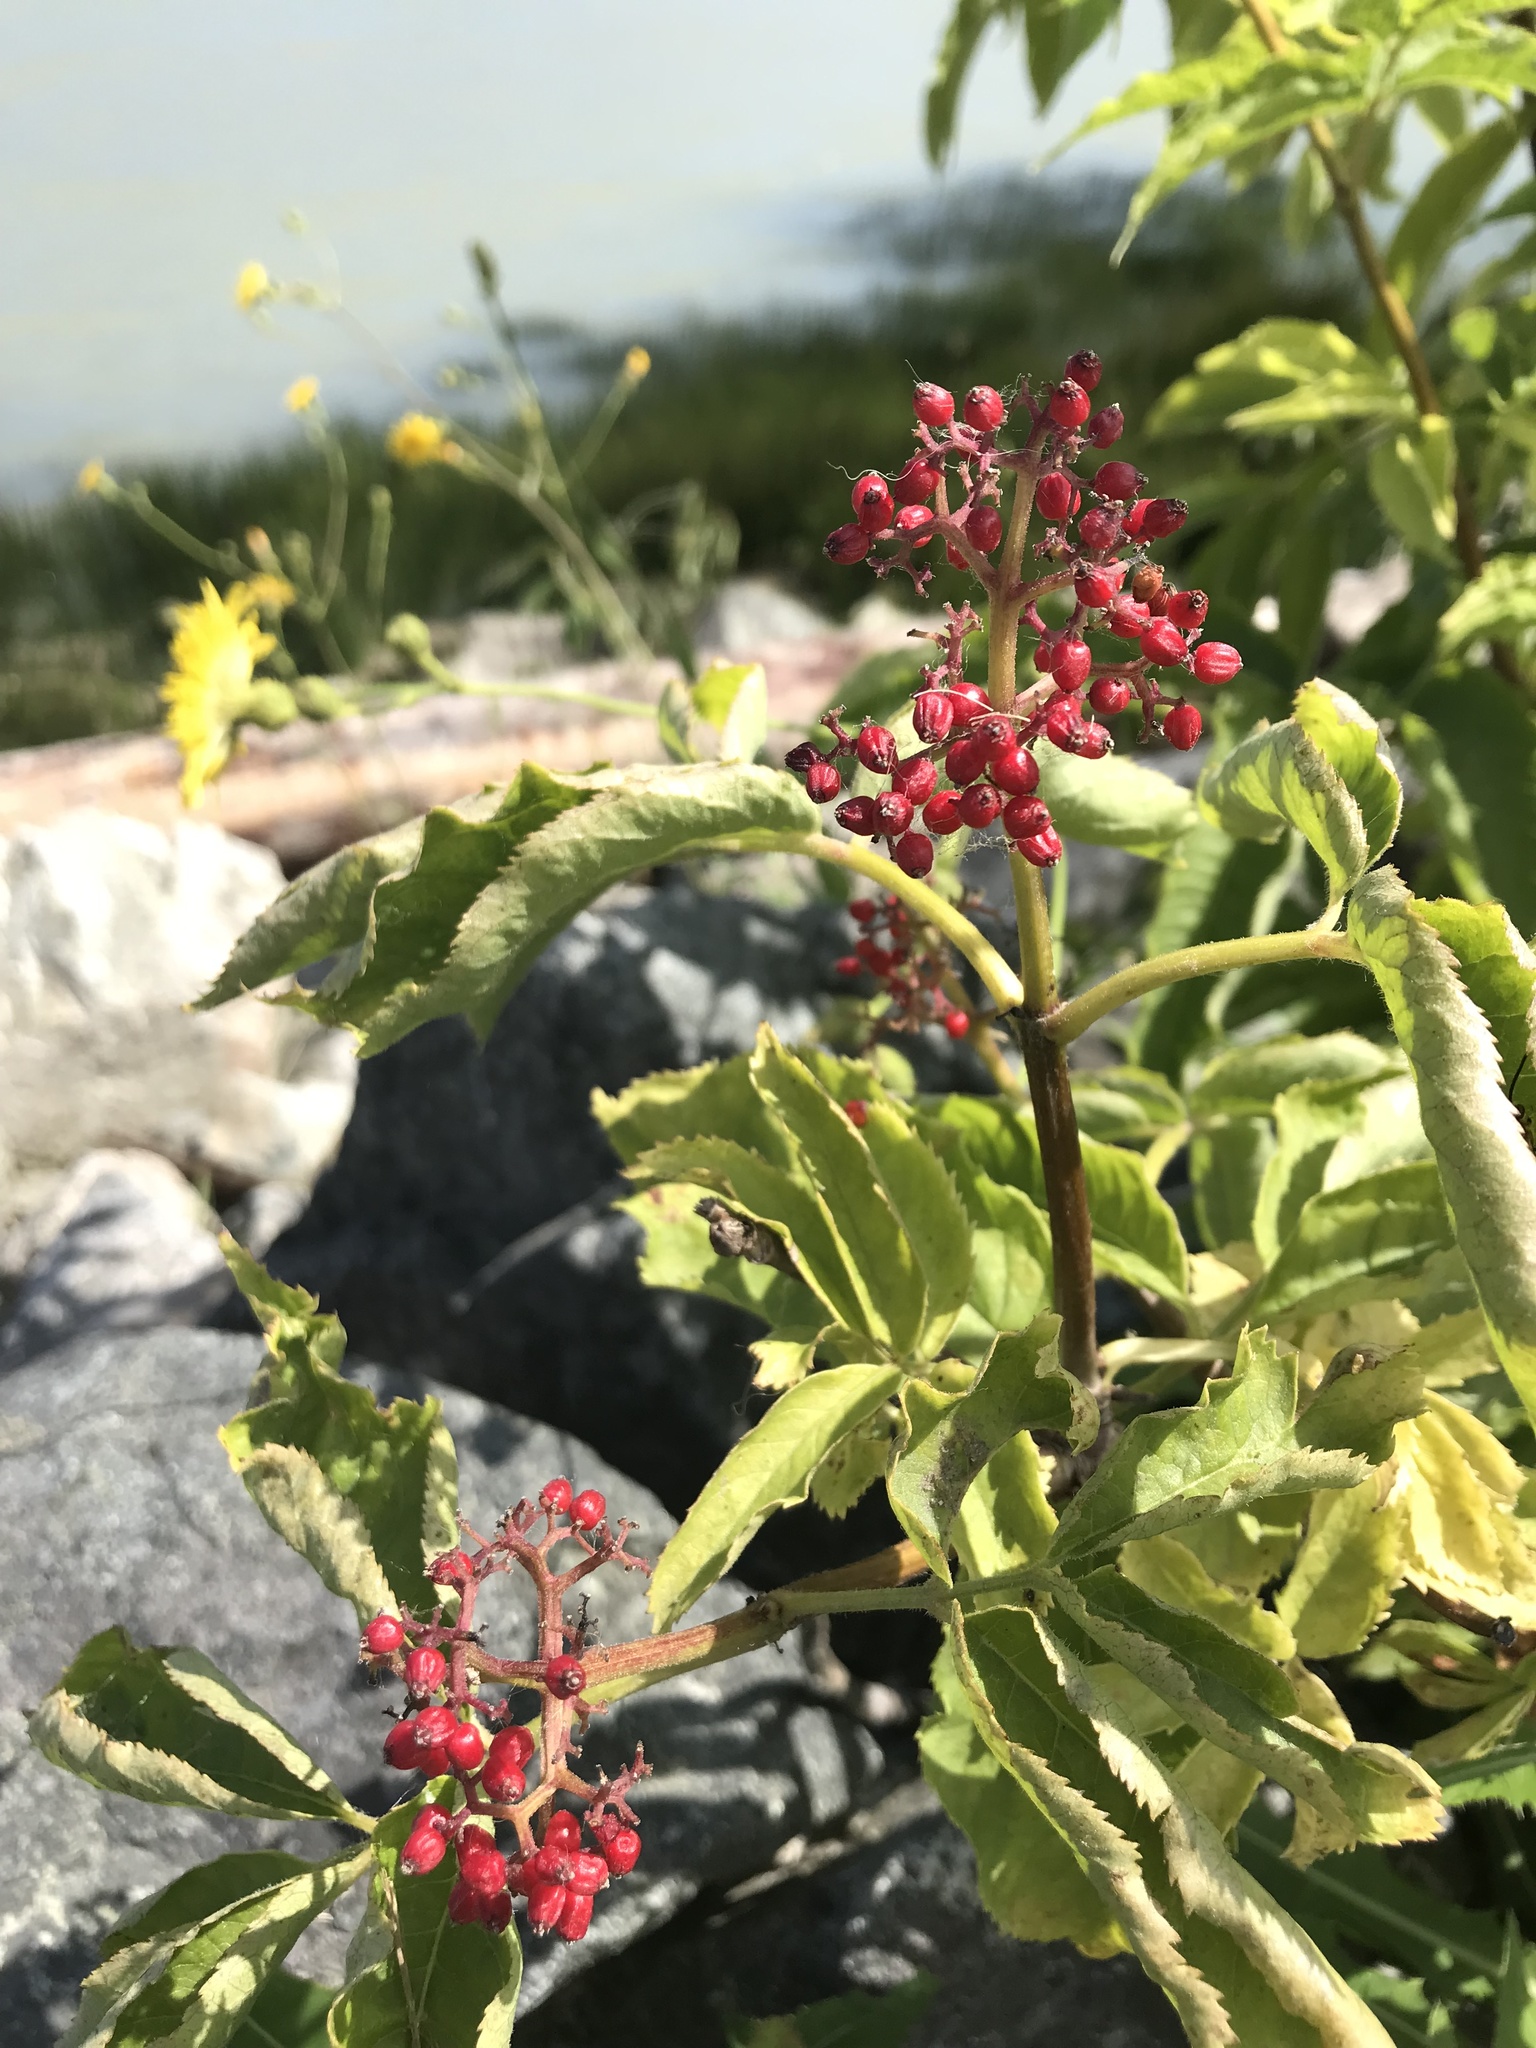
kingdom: Plantae
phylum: Tracheophyta
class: Magnoliopsida
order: Dipsacales
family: Viburnaceae
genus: Sambucus
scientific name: Sambucus racemosa
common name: Red-berried elder
